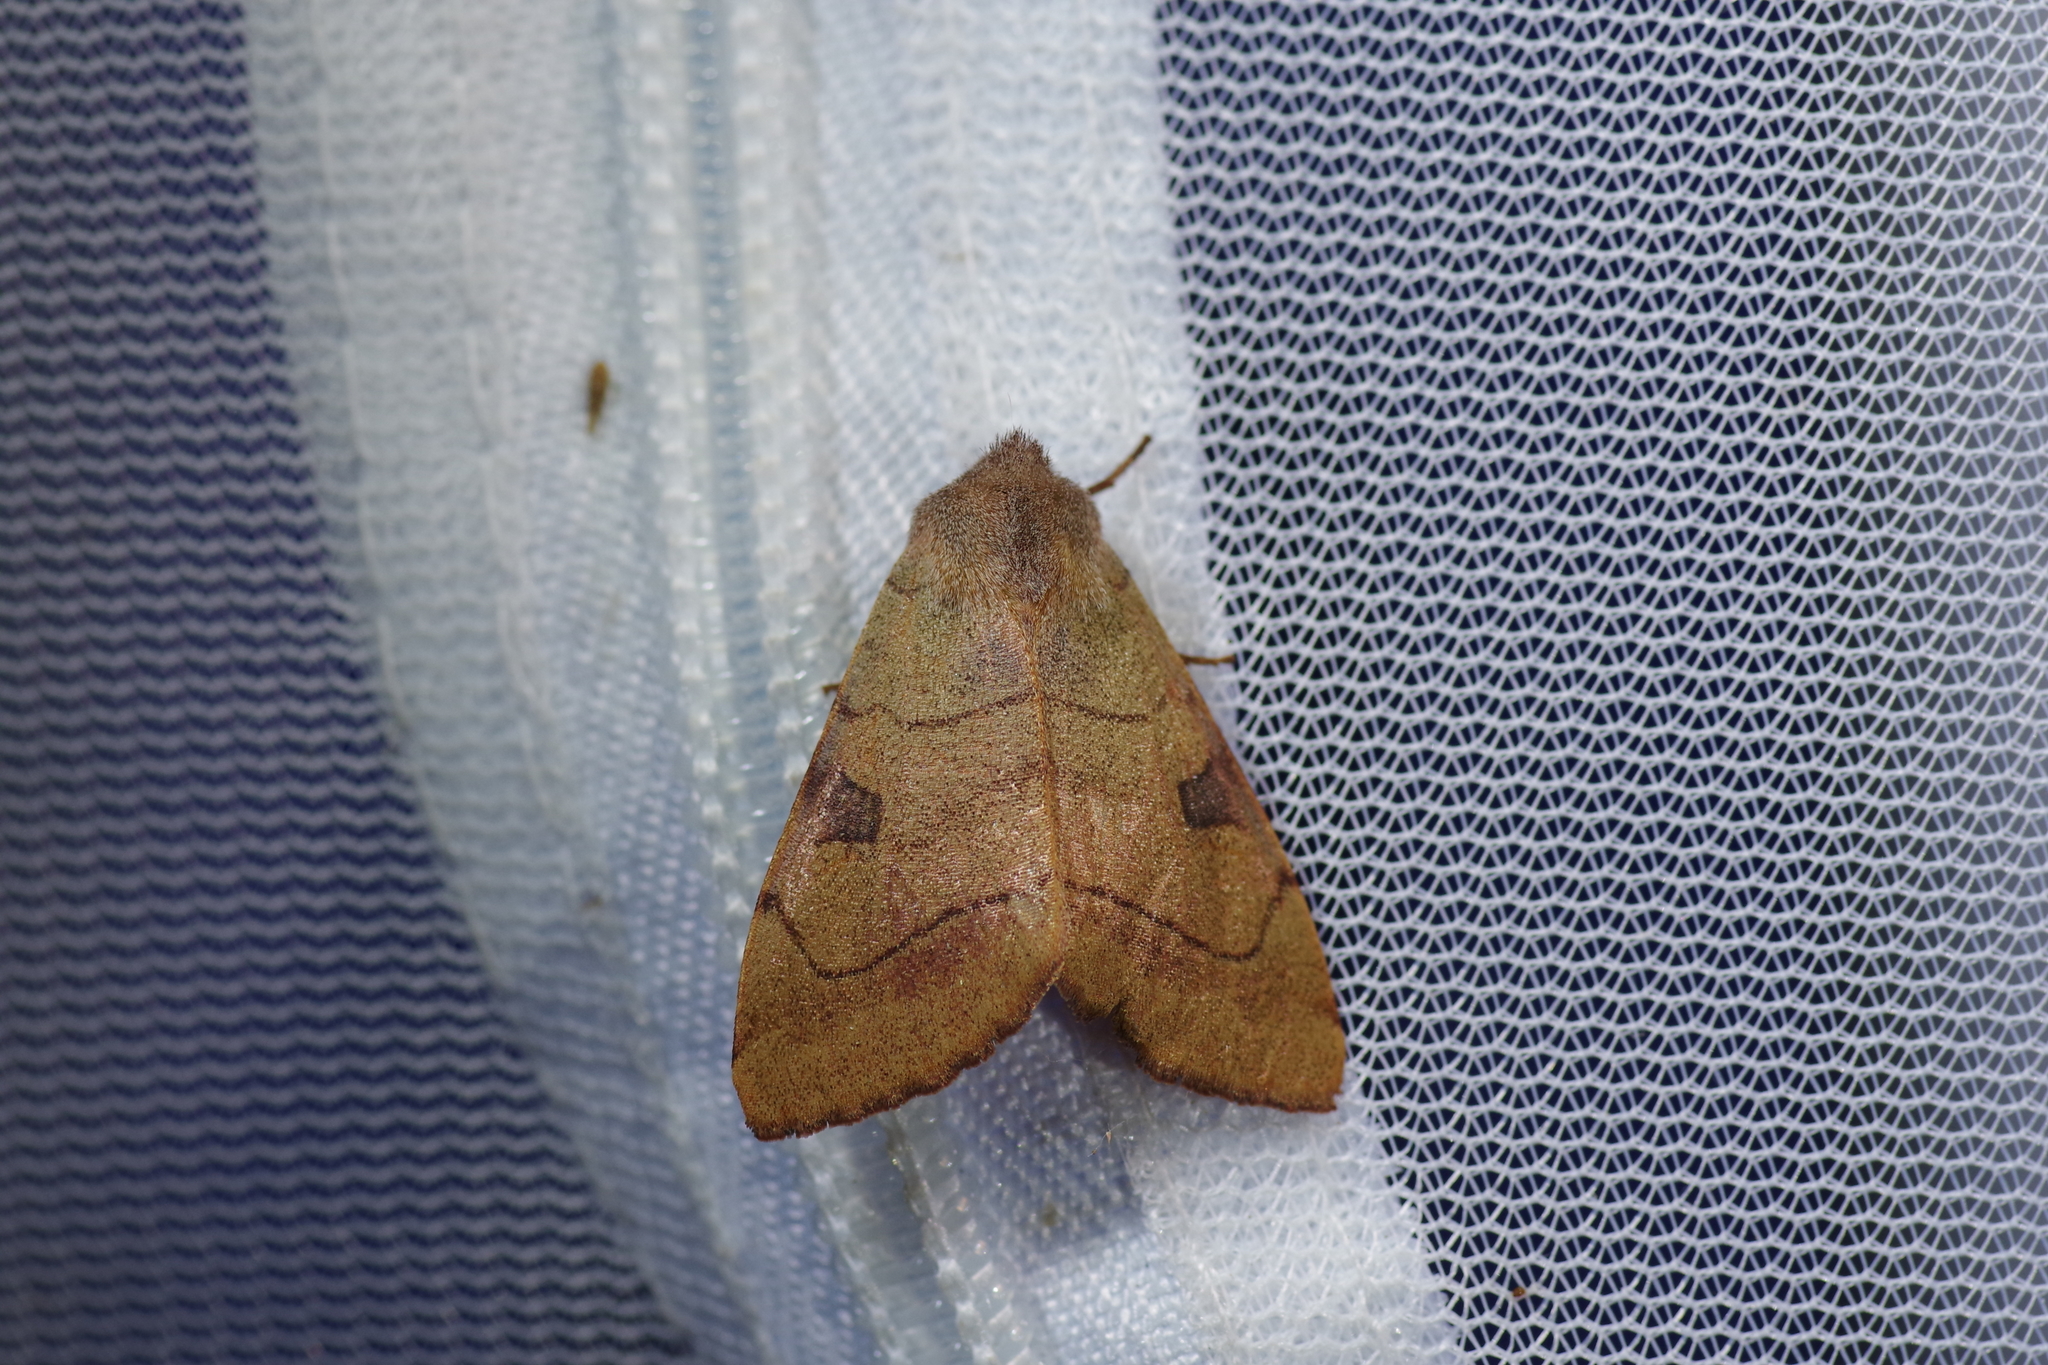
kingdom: Animalia
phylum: Arthropoda
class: Insecta
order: Lepidoptera
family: Noctuidae
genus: Choephora
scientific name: Choephora fungorum
